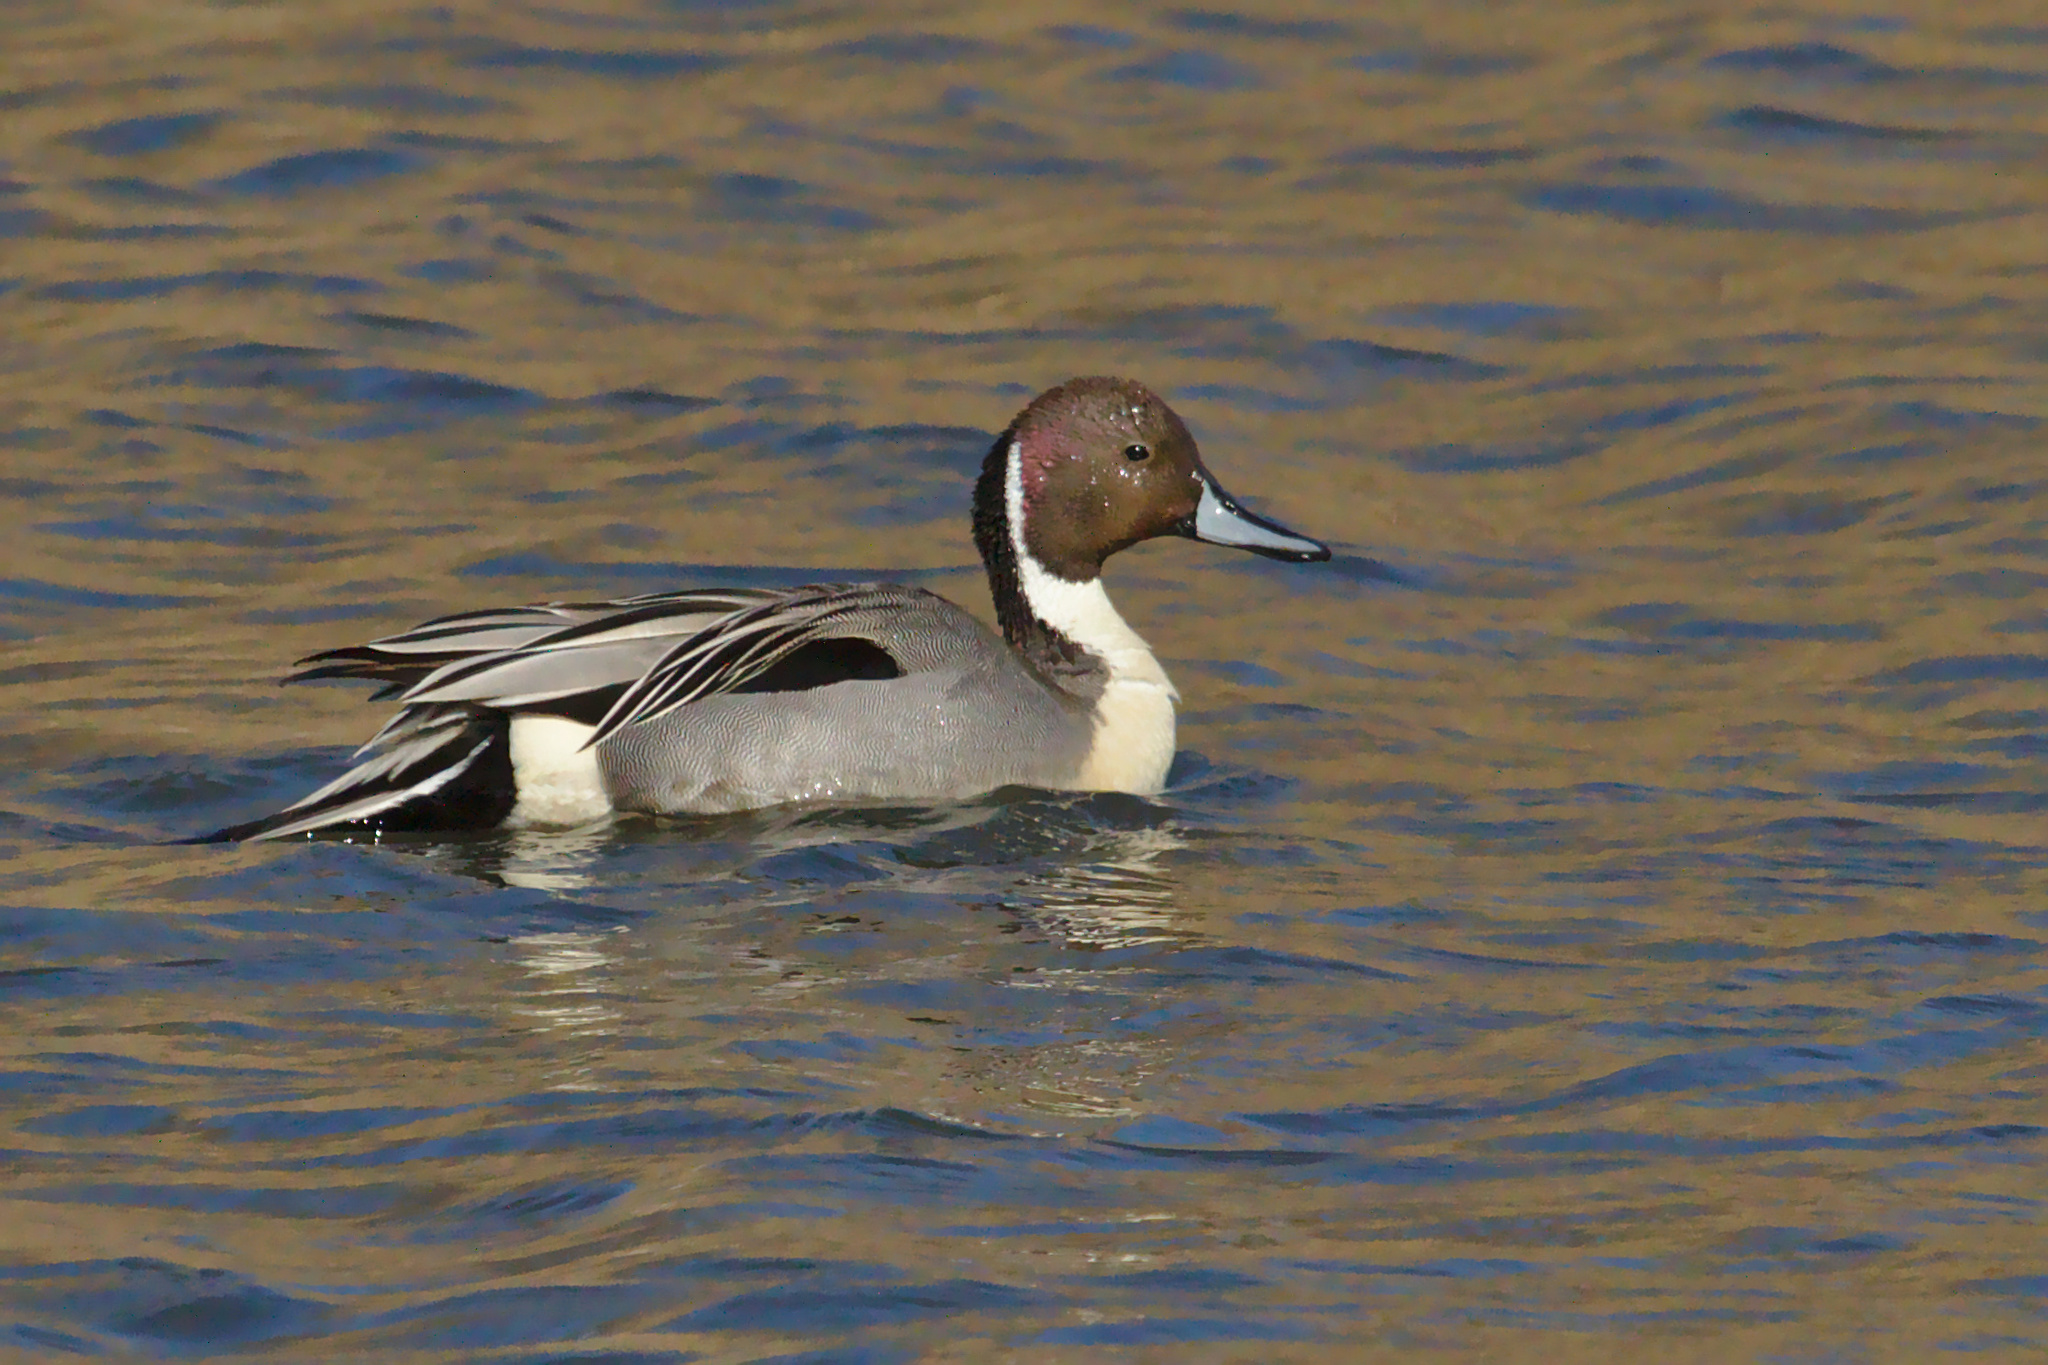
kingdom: Animalia
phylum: Chordata
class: Aves
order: Anseriformes
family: Anatidae
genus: Anas
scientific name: Anas acuta
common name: Northern pintail
